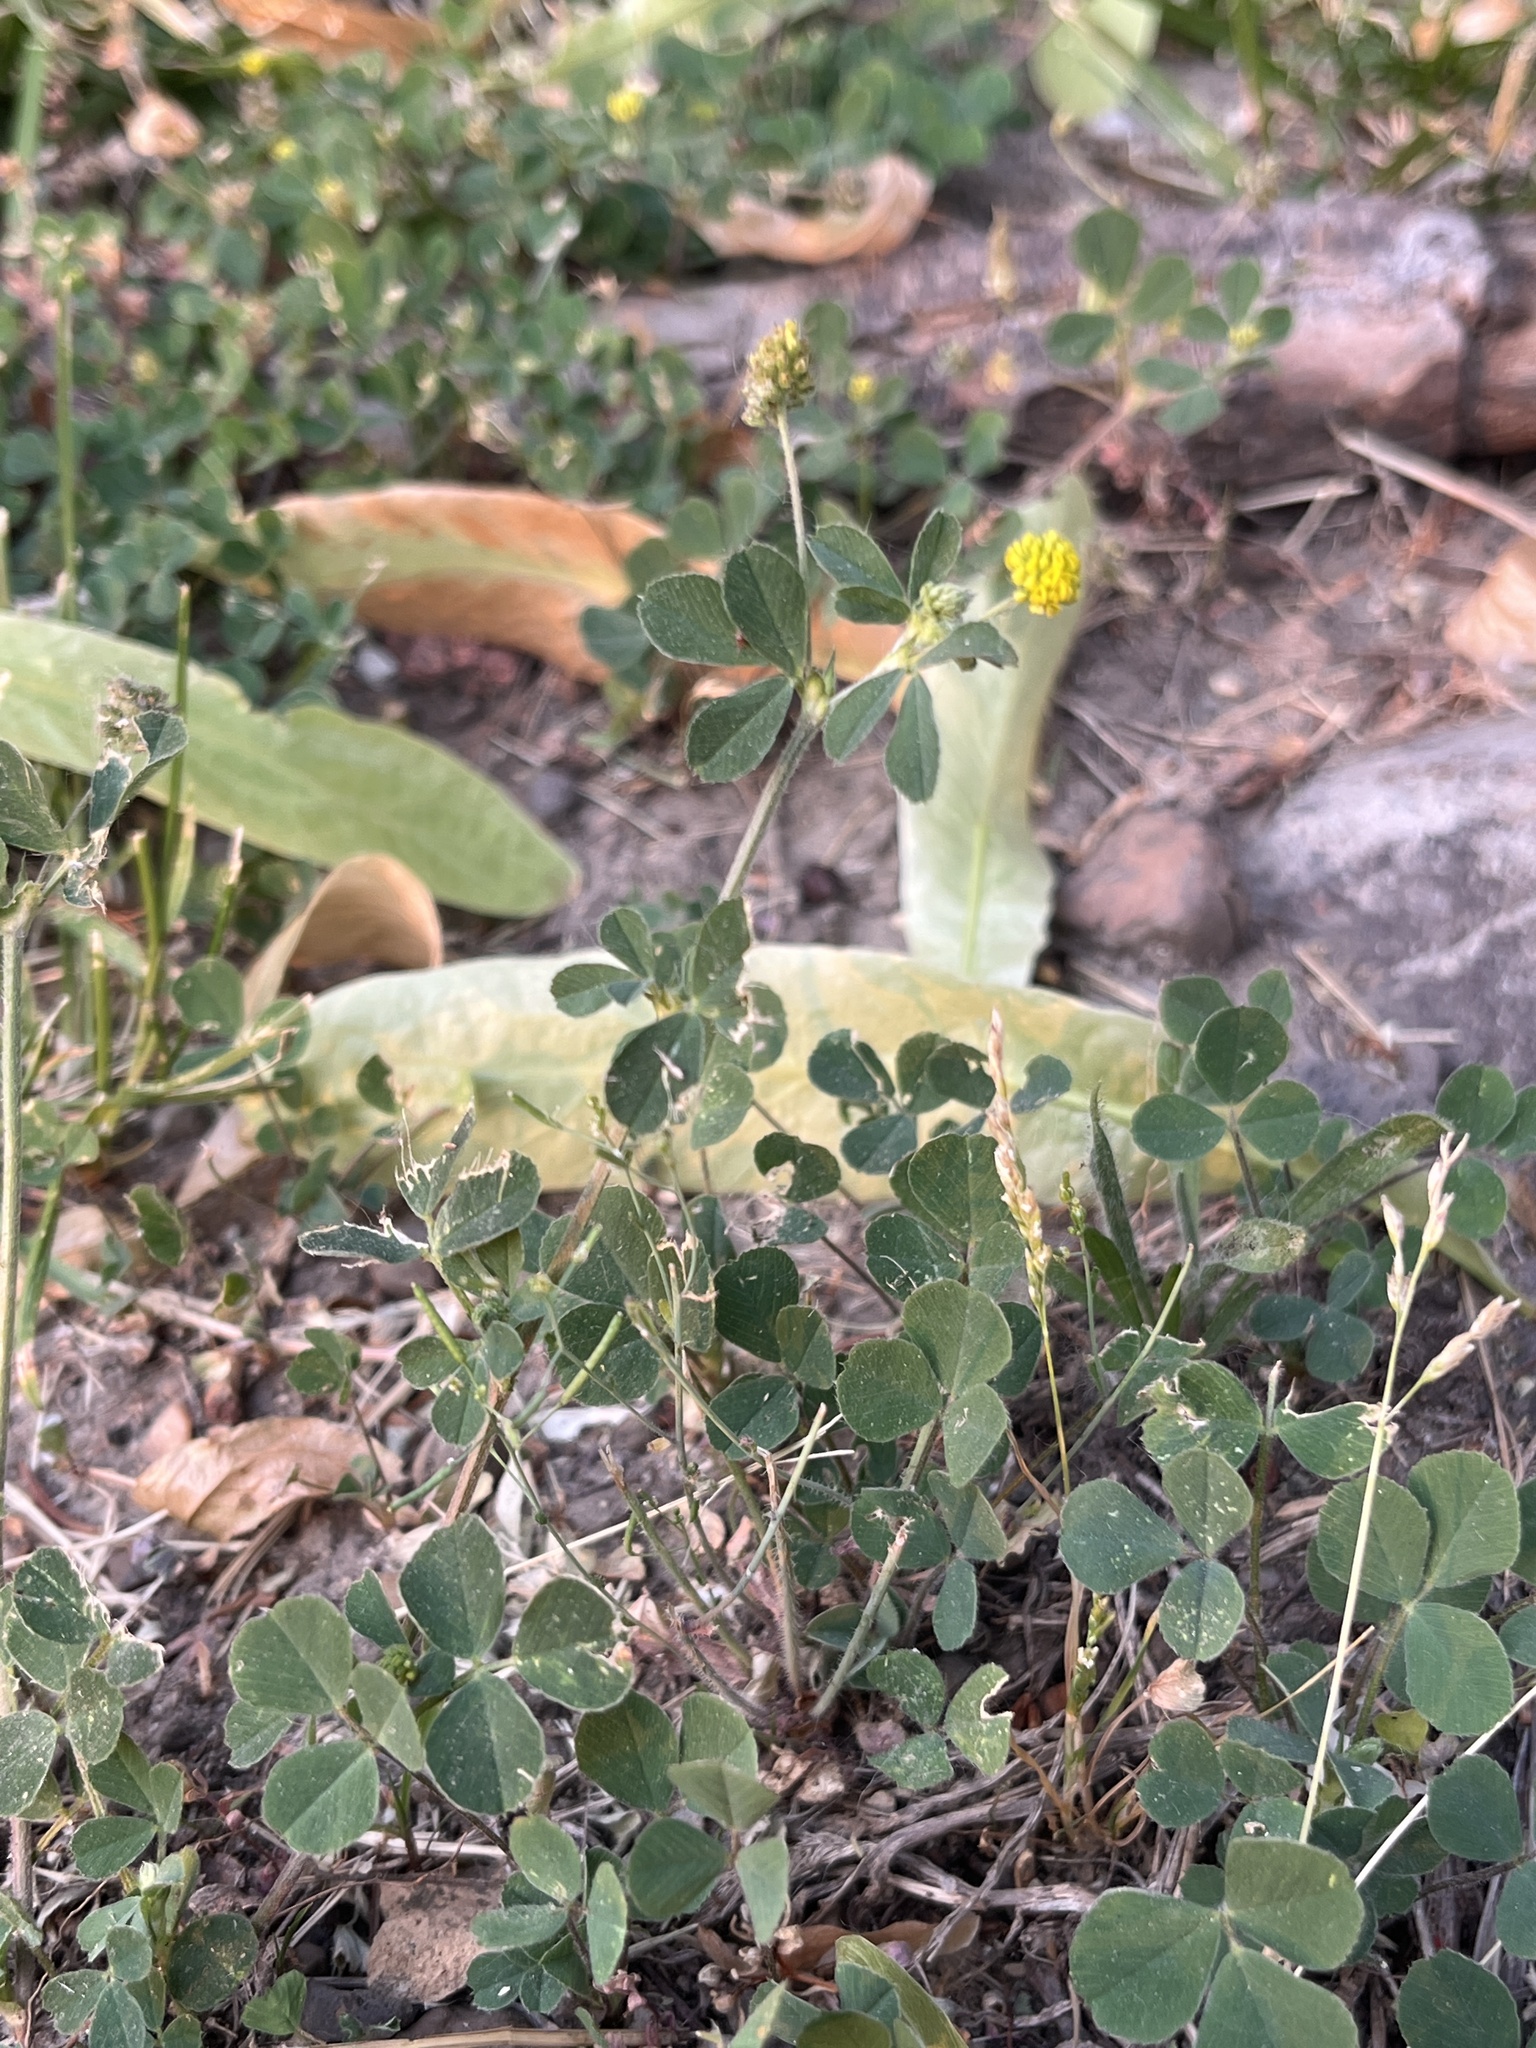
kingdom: Plantae
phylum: Tracheophyta
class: Magnoliopsida
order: Fabales
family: Fabaceae
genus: Medicago
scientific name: Medicago lupulina
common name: Black medick
